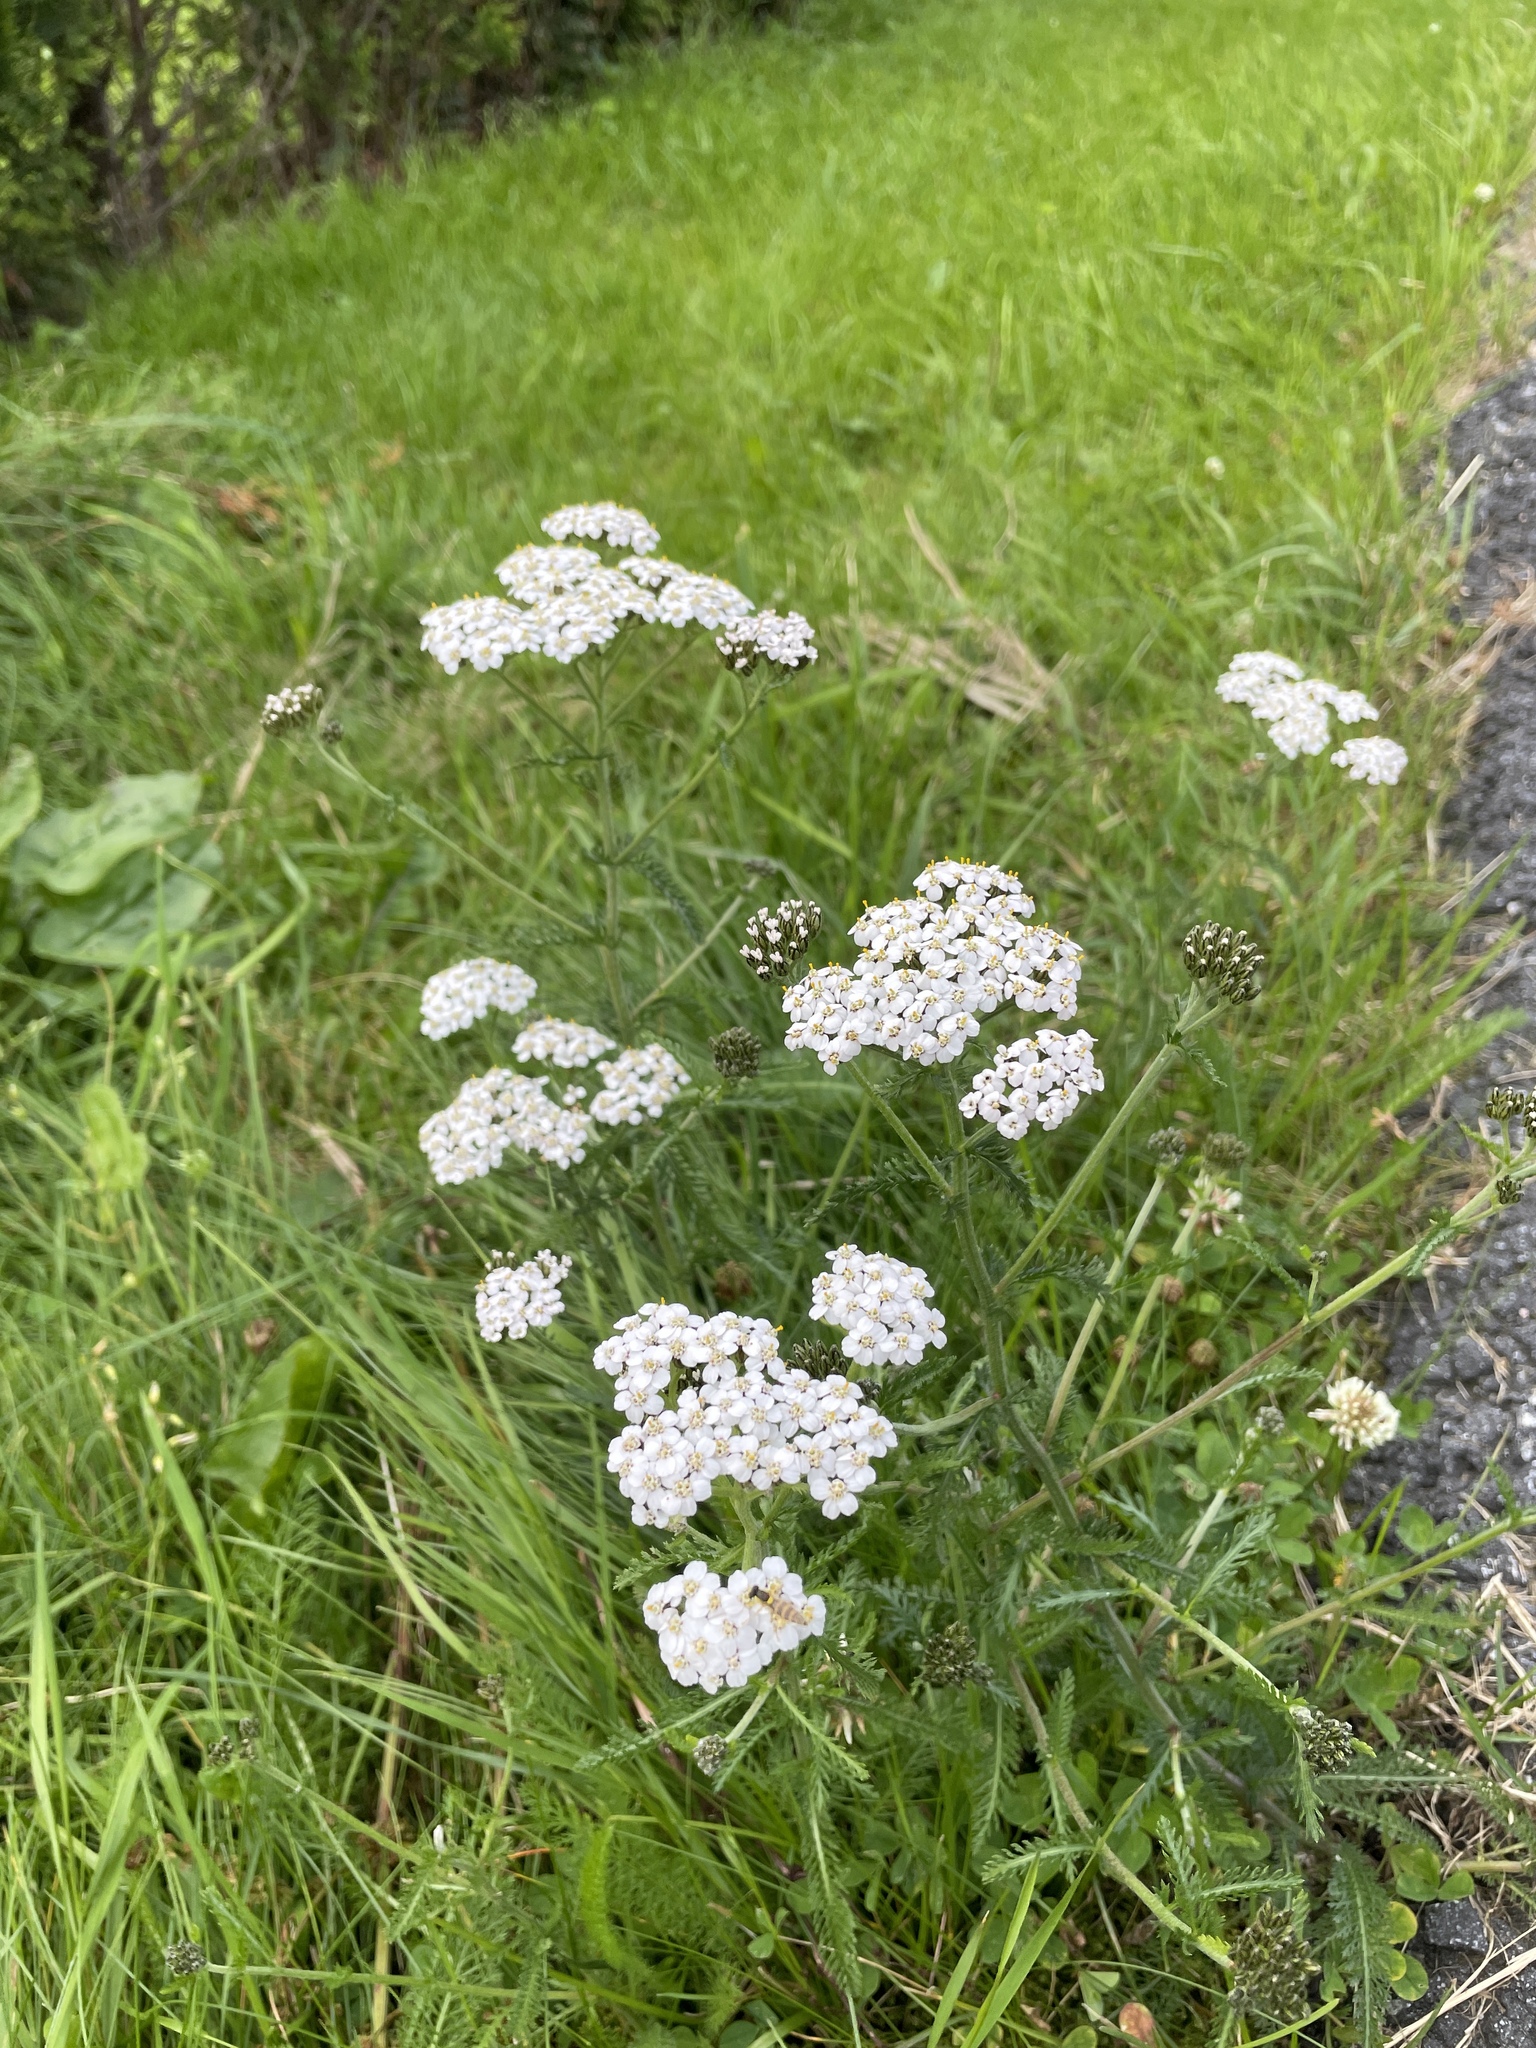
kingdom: Plantae
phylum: Tracheophyta
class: Magnoliopsida
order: Asterales
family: Asteraceae
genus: Achillea
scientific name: Achillea millefolium
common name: Yarrow
